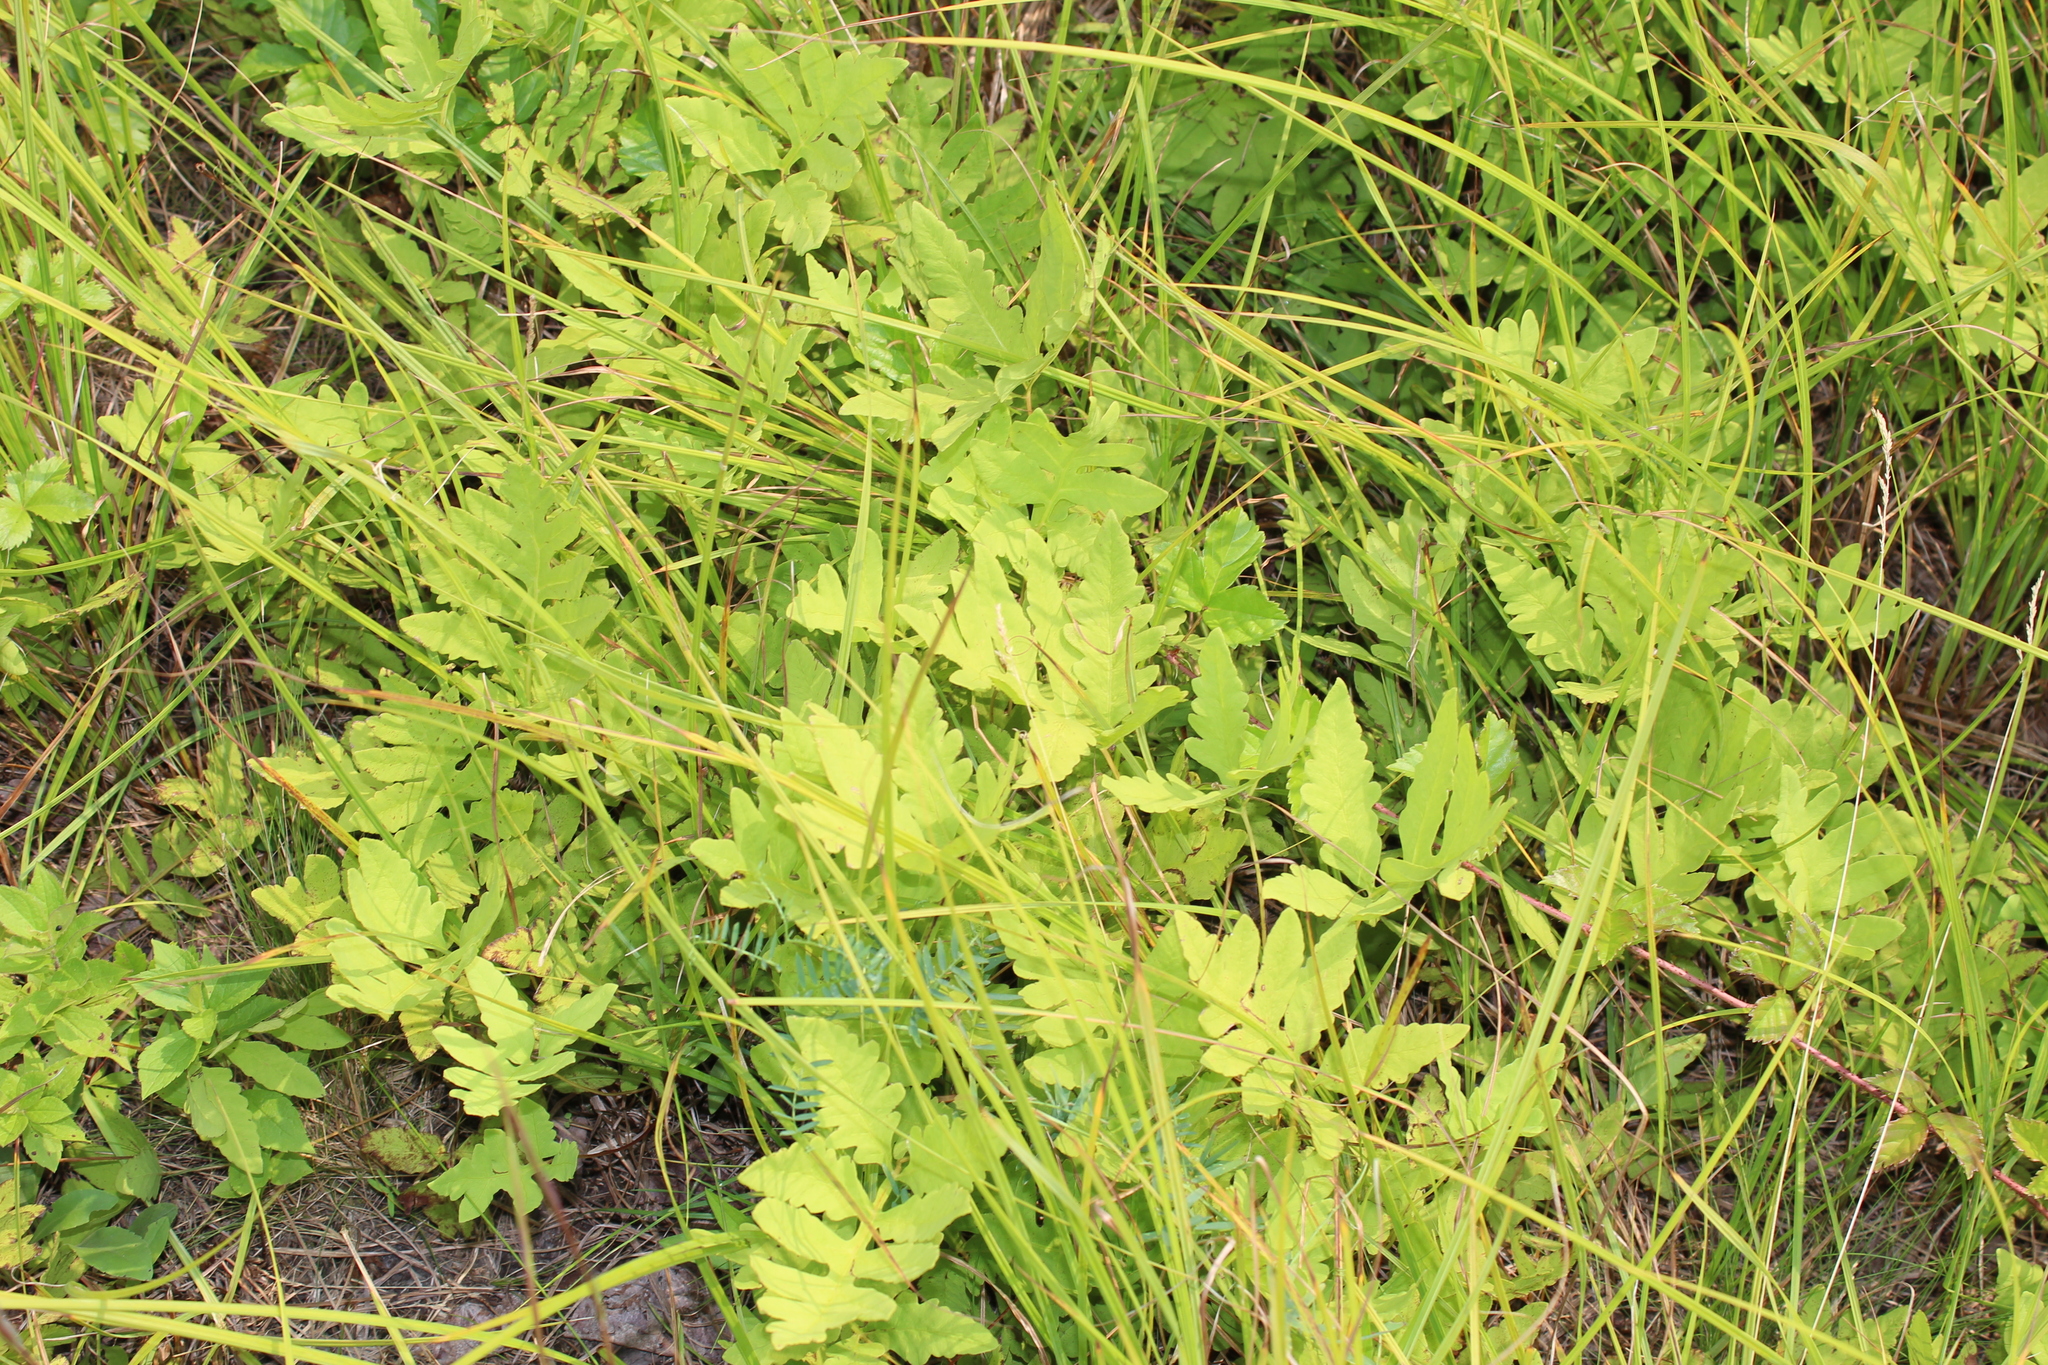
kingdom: Plantae
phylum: Tracheophyta
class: Polypodiopsida
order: Polypodiales
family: Onocleaceae
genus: Onoclea
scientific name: Onoclea sensibilis
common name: Sensitive fern
